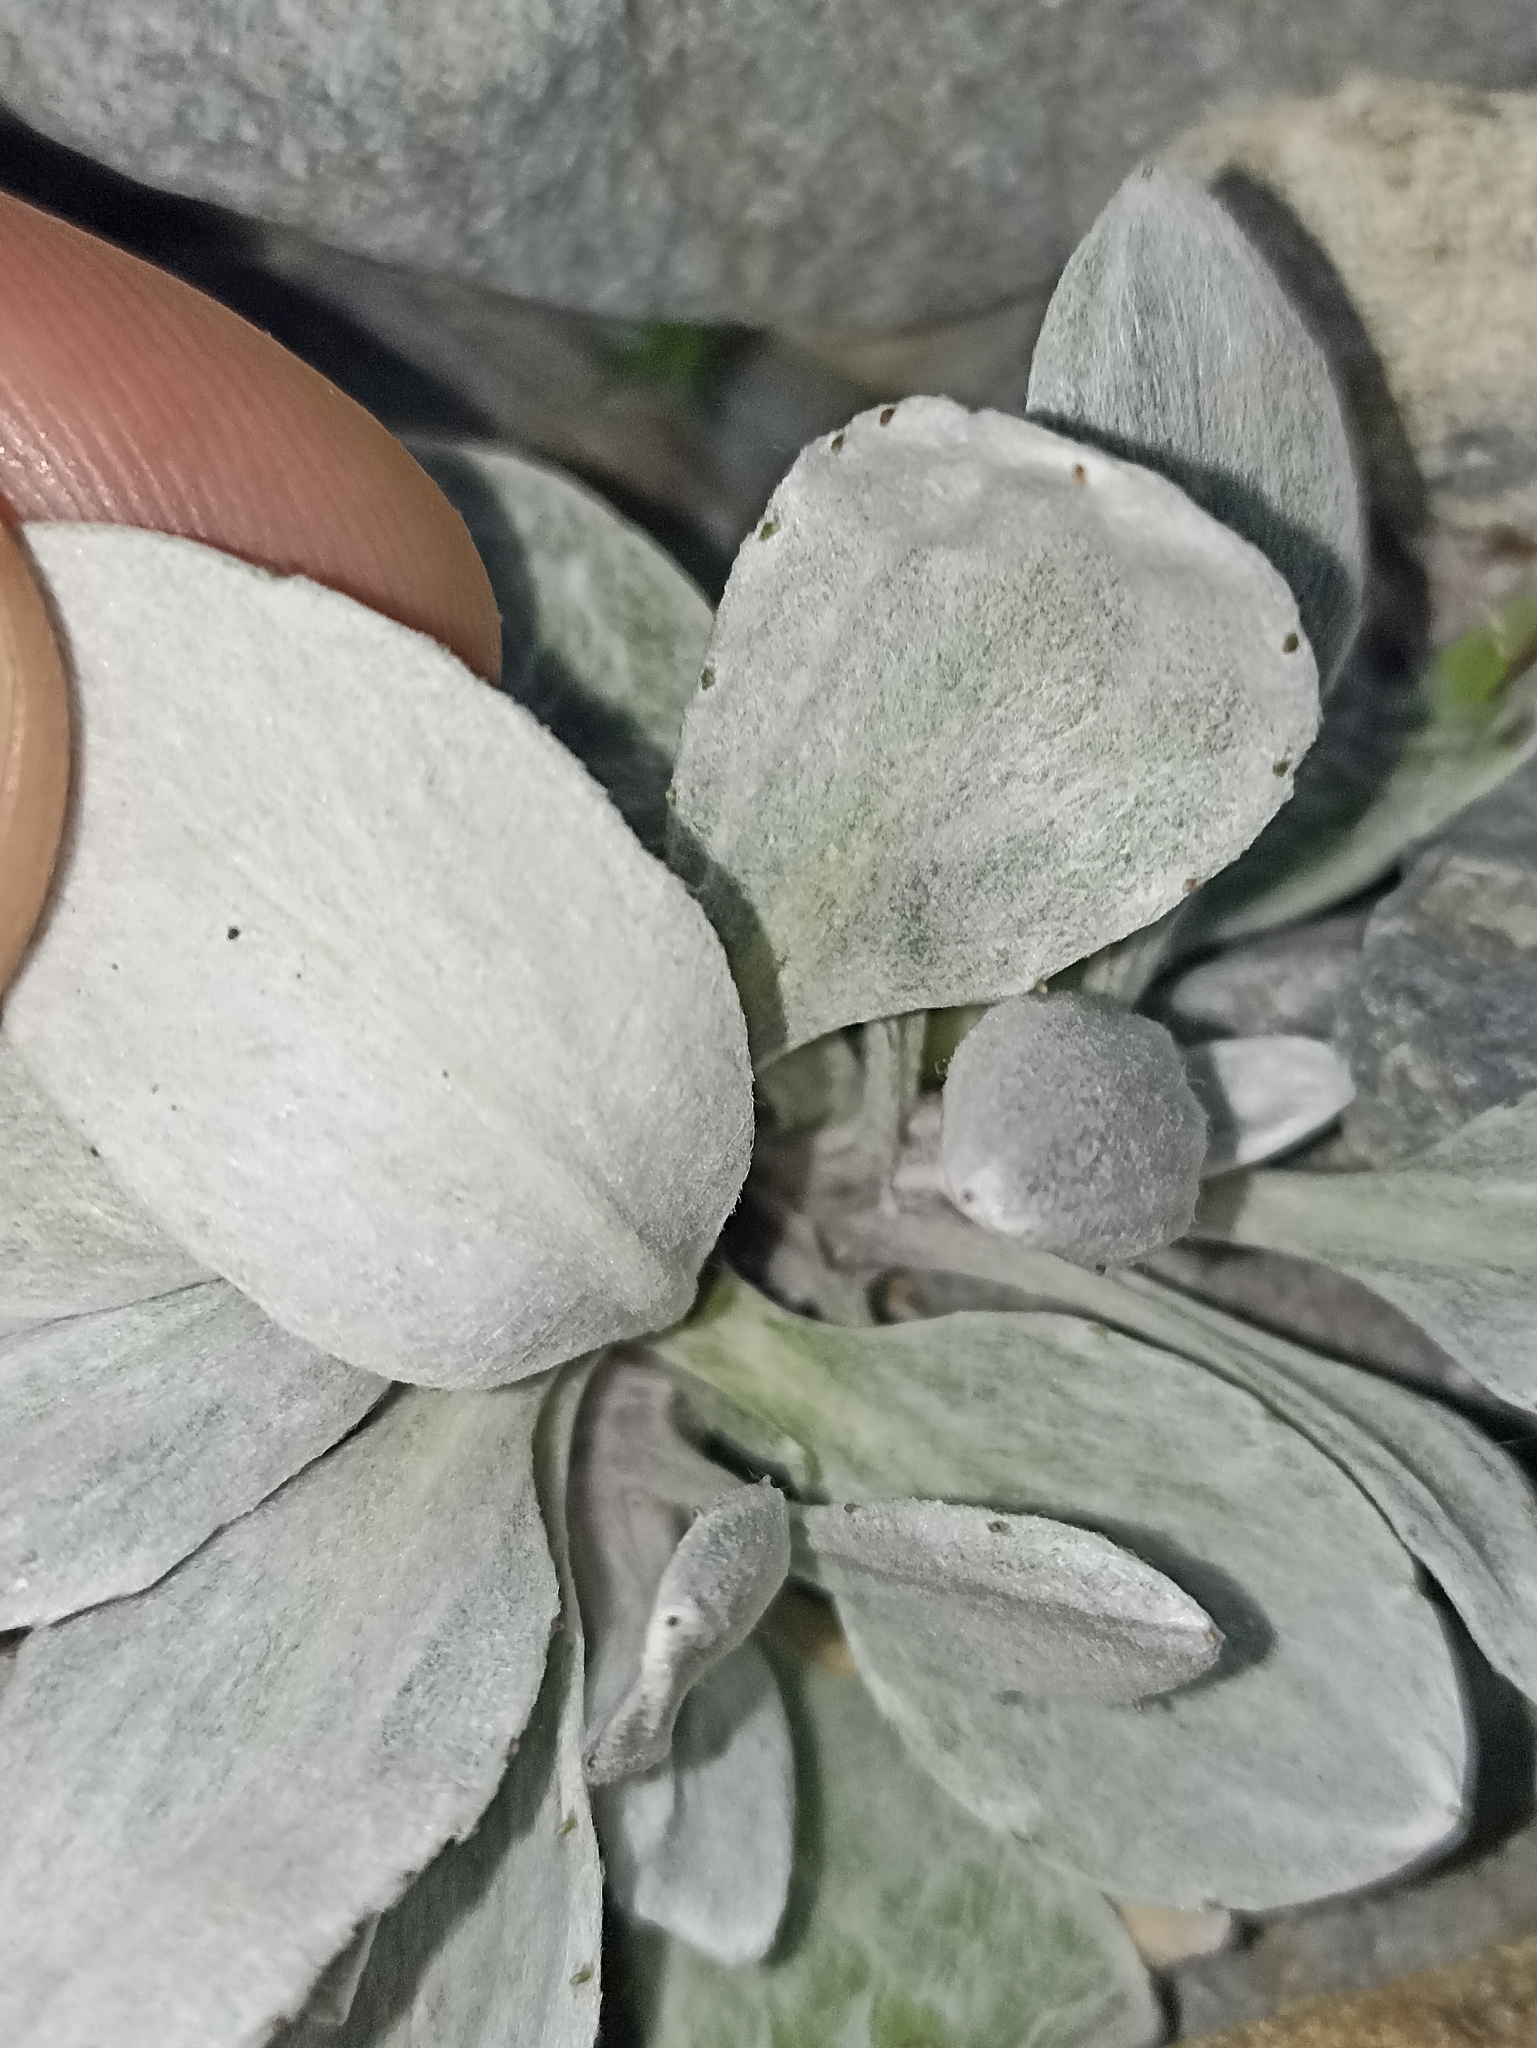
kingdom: Plantae
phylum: Tracheophyta
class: Magnoliopsida
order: Asterales
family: Asteraceae
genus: Celmisia
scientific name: Celmisia allanii
